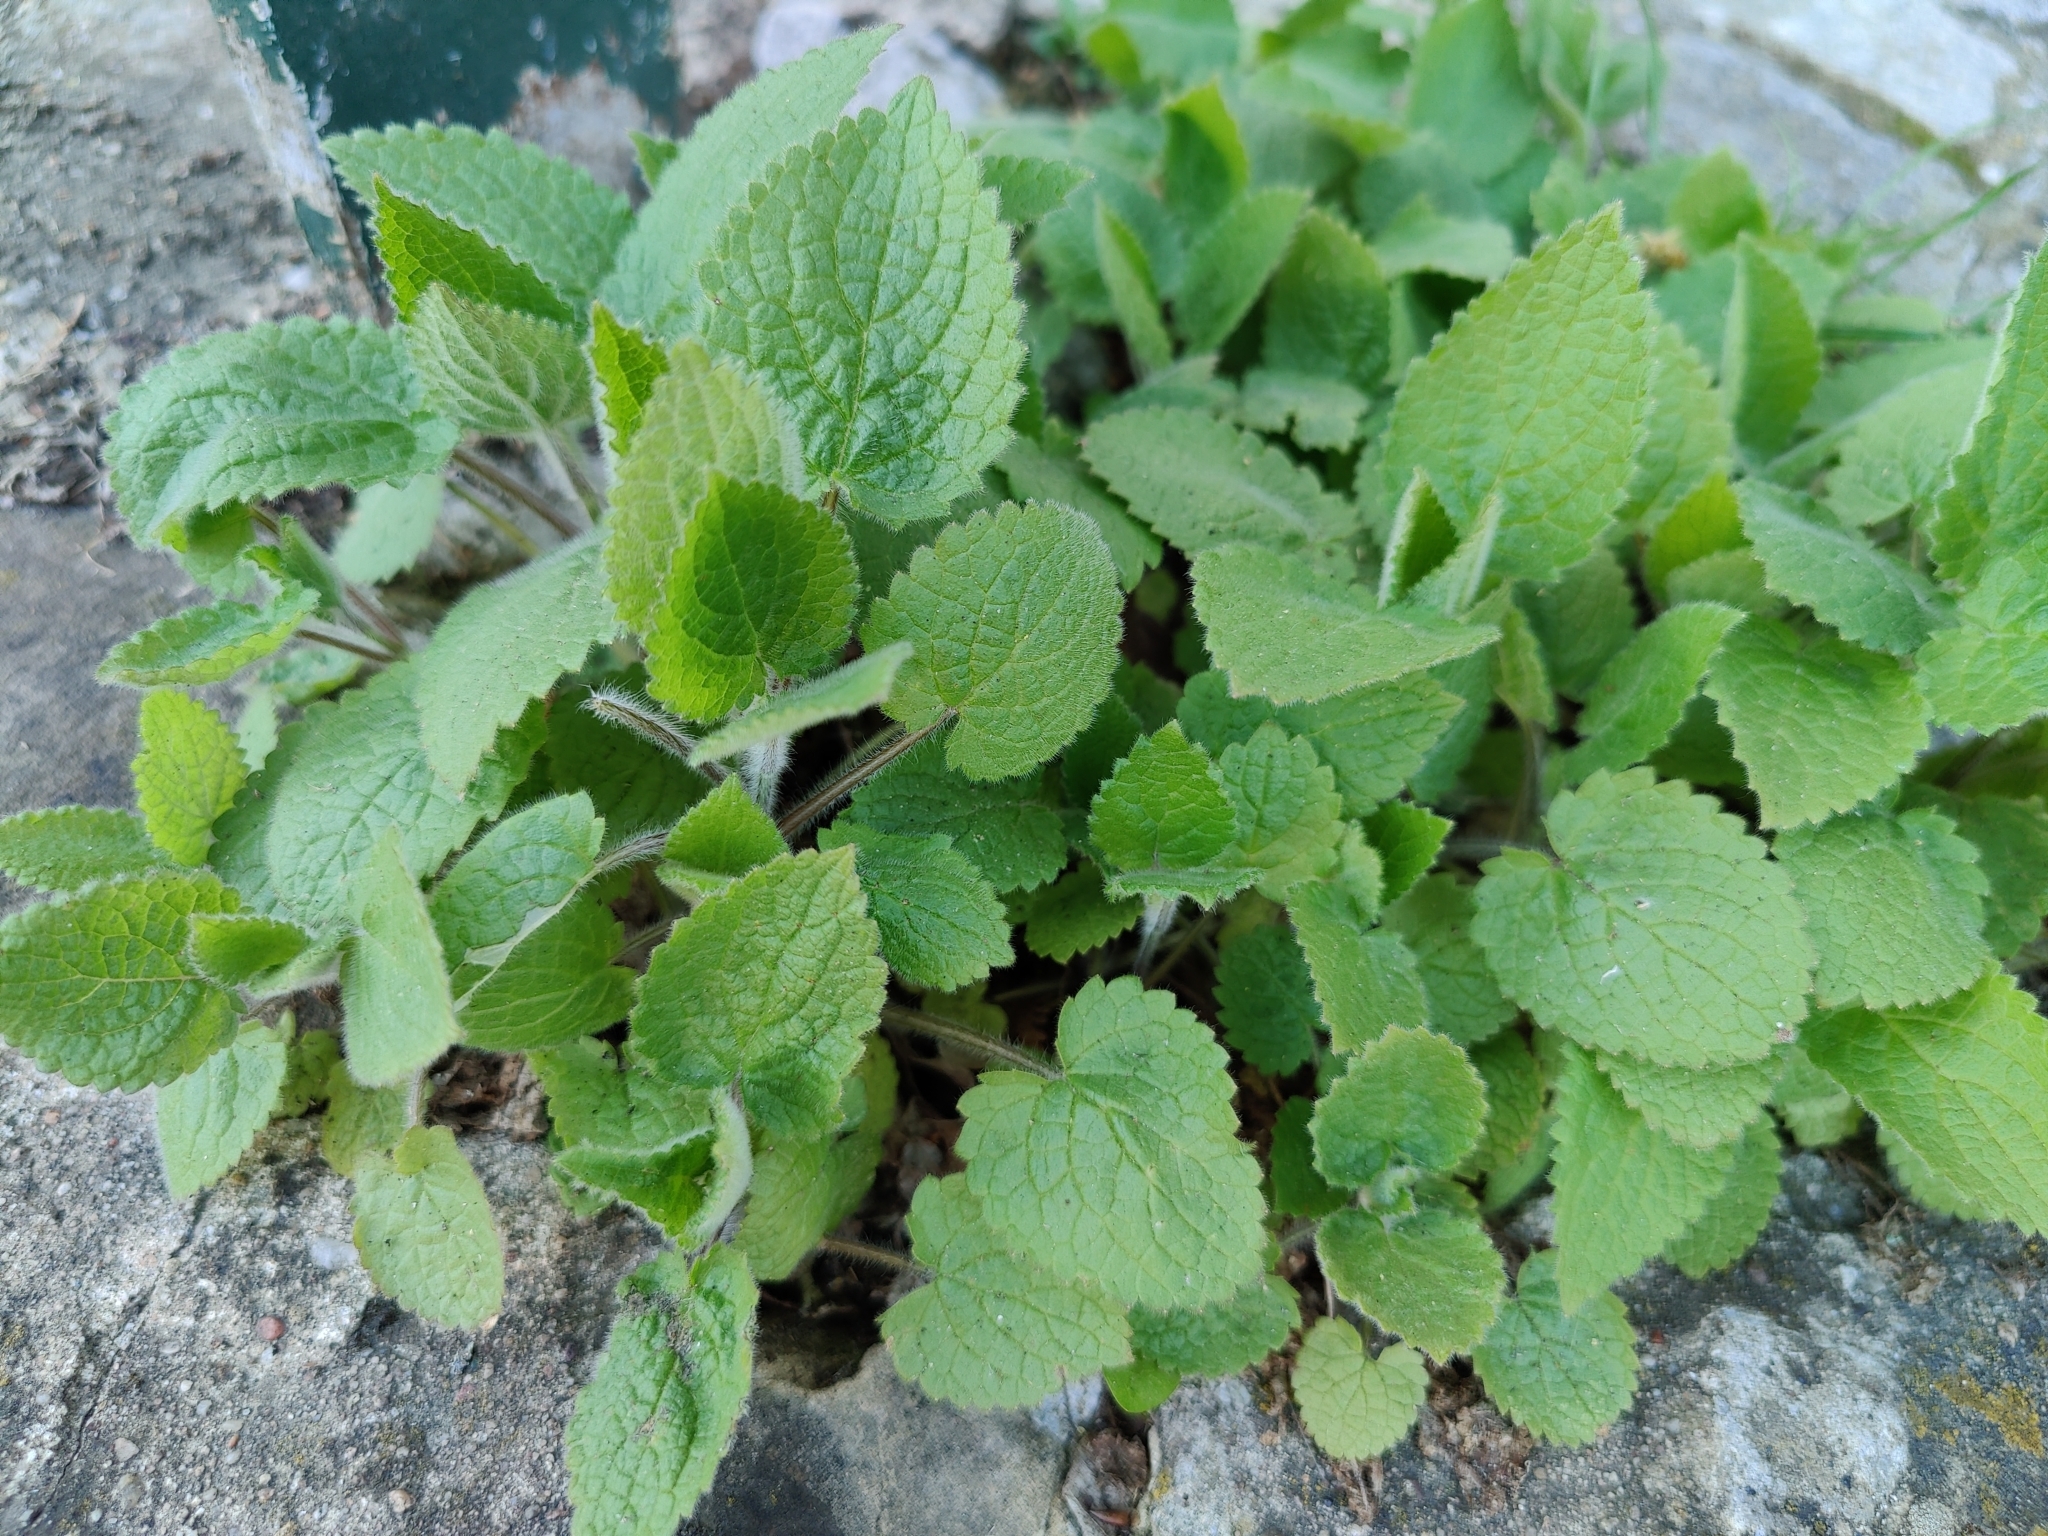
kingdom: Plantae
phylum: Tracheophyta
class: Magnoliopsida
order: Lamiales
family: Lamiaceae
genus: Stachys
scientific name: Stachys sylvatica
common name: Hedge woundwort
